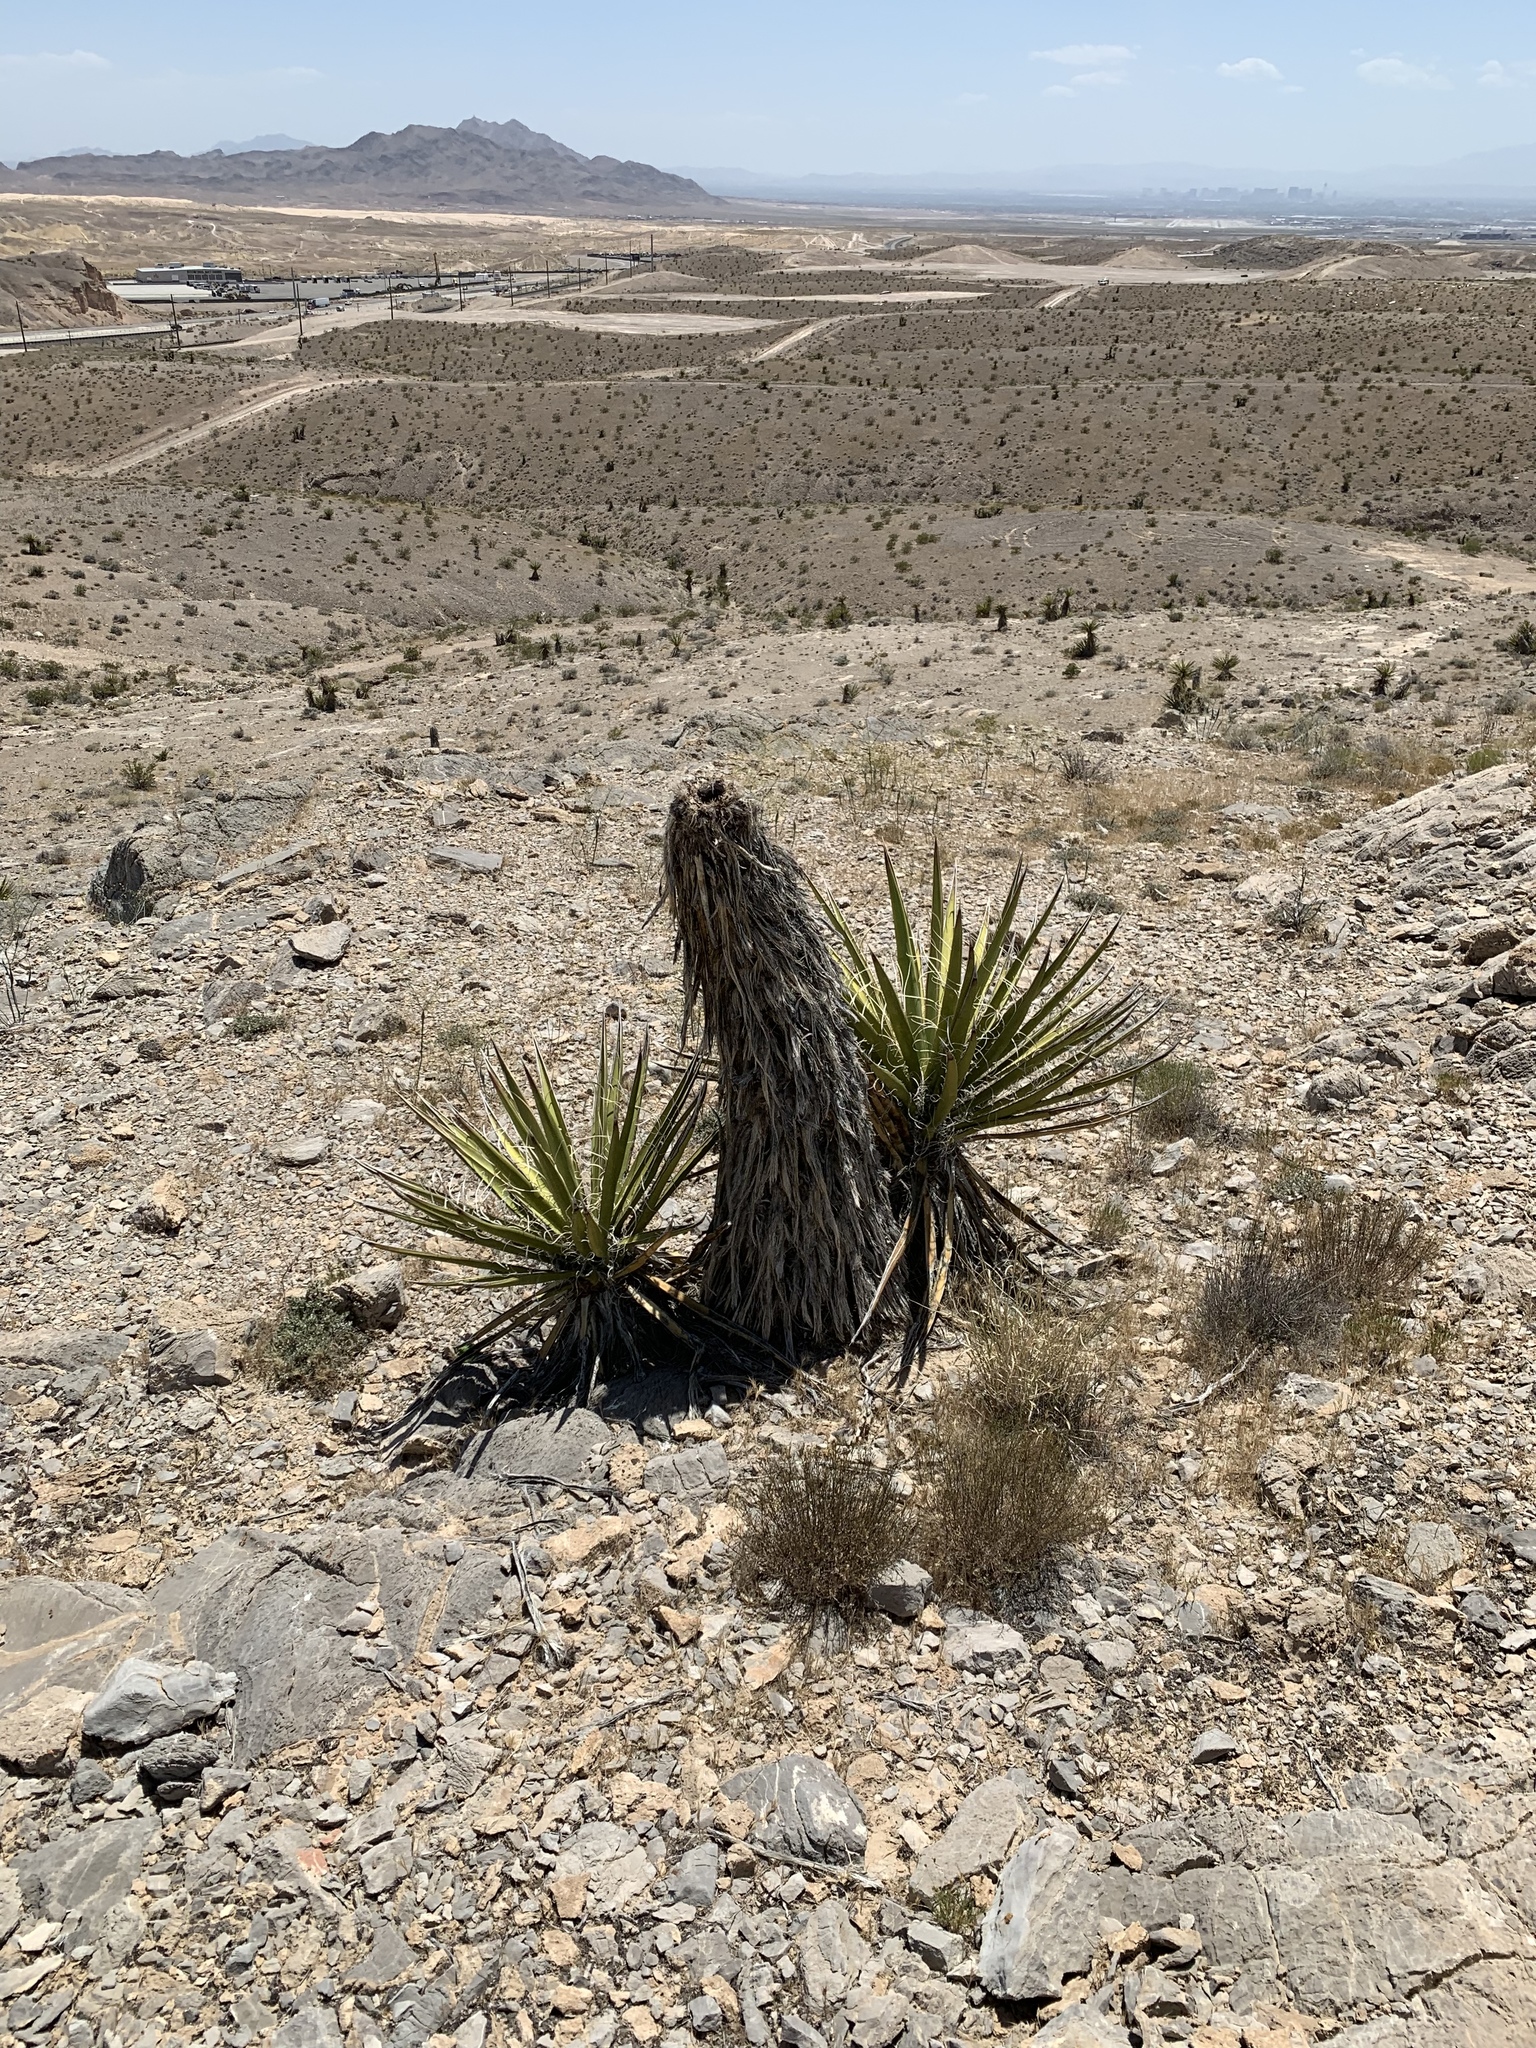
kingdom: Plantae
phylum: Tracheophyta
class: Liliopsida
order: Asparagales
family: Asparagaceae
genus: Yucca
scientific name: Yucca schidigera
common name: Mojave yucca
